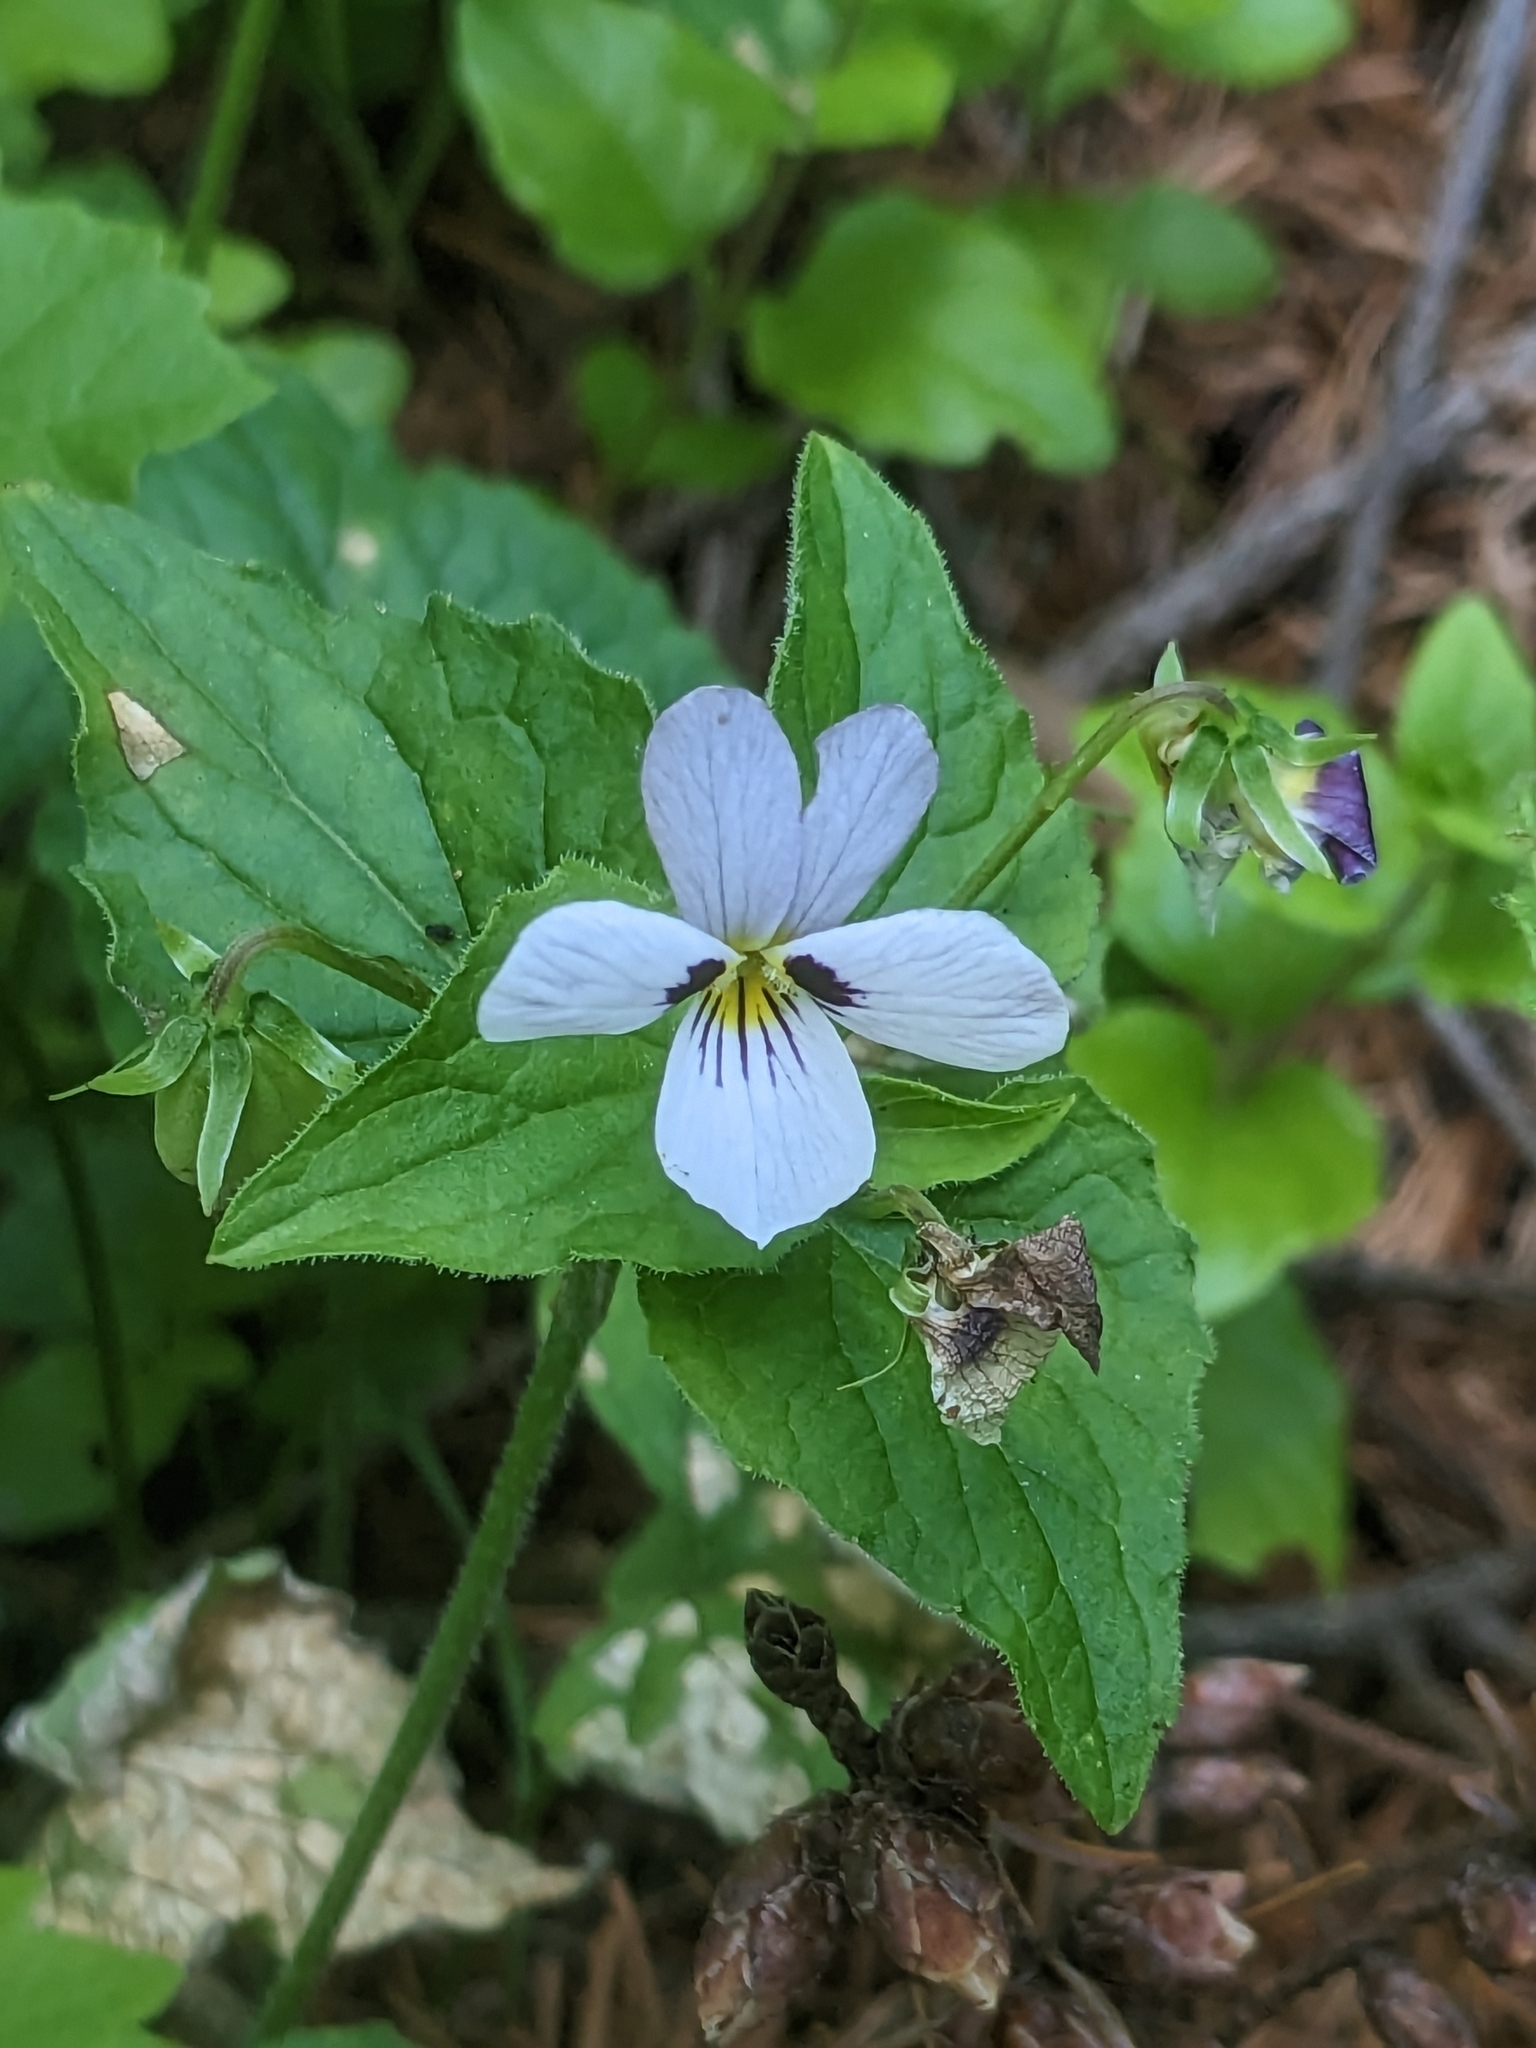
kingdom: Plantae
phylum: Tracheophyta
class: Magnoliopsida
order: Malpighiales
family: Violaceae
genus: Viola
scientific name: Viola ocellata
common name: Western heart's ease
